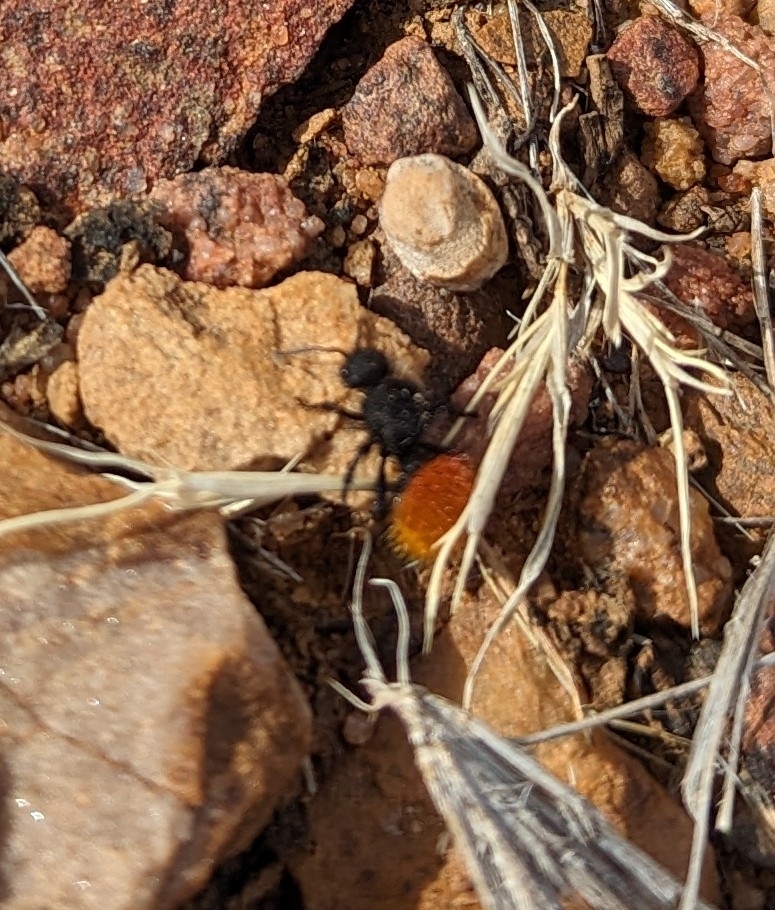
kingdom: Animalia
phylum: Arthropoda
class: Insecta
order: Hymenoptera
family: Mutillidae
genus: Dasymutilla
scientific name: Dasymutilla vestita
